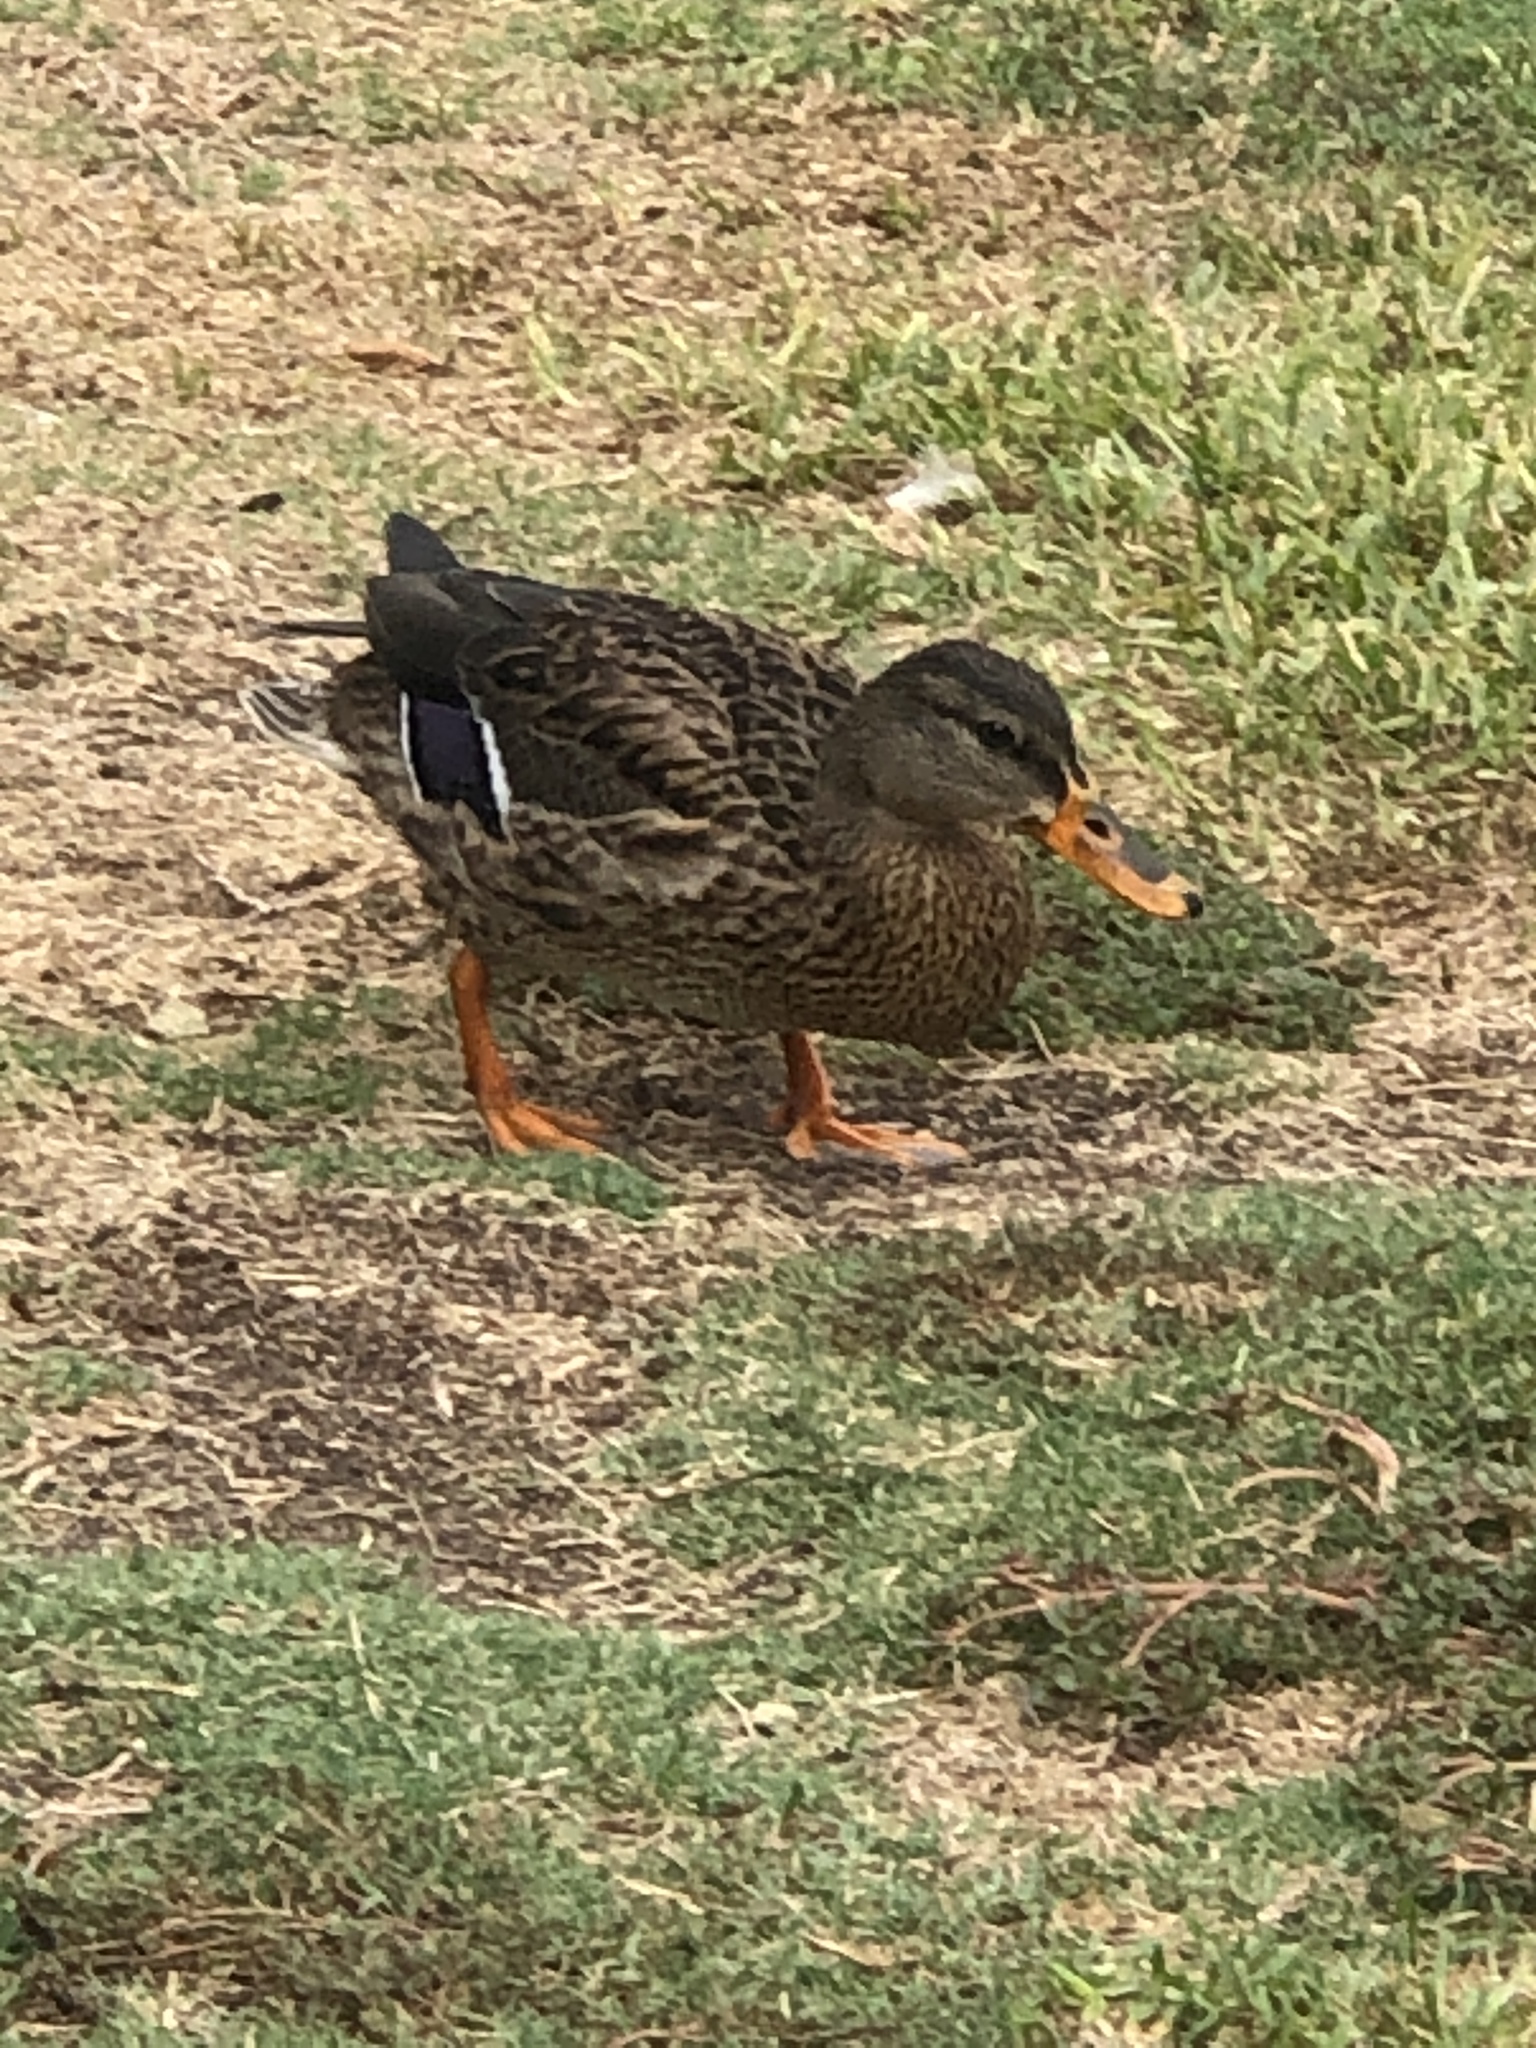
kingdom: Animalia
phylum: Chordata
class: Aves
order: Anseriformes
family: Anatidae
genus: Anas
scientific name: Anas platyrhynchos
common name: Mallard
